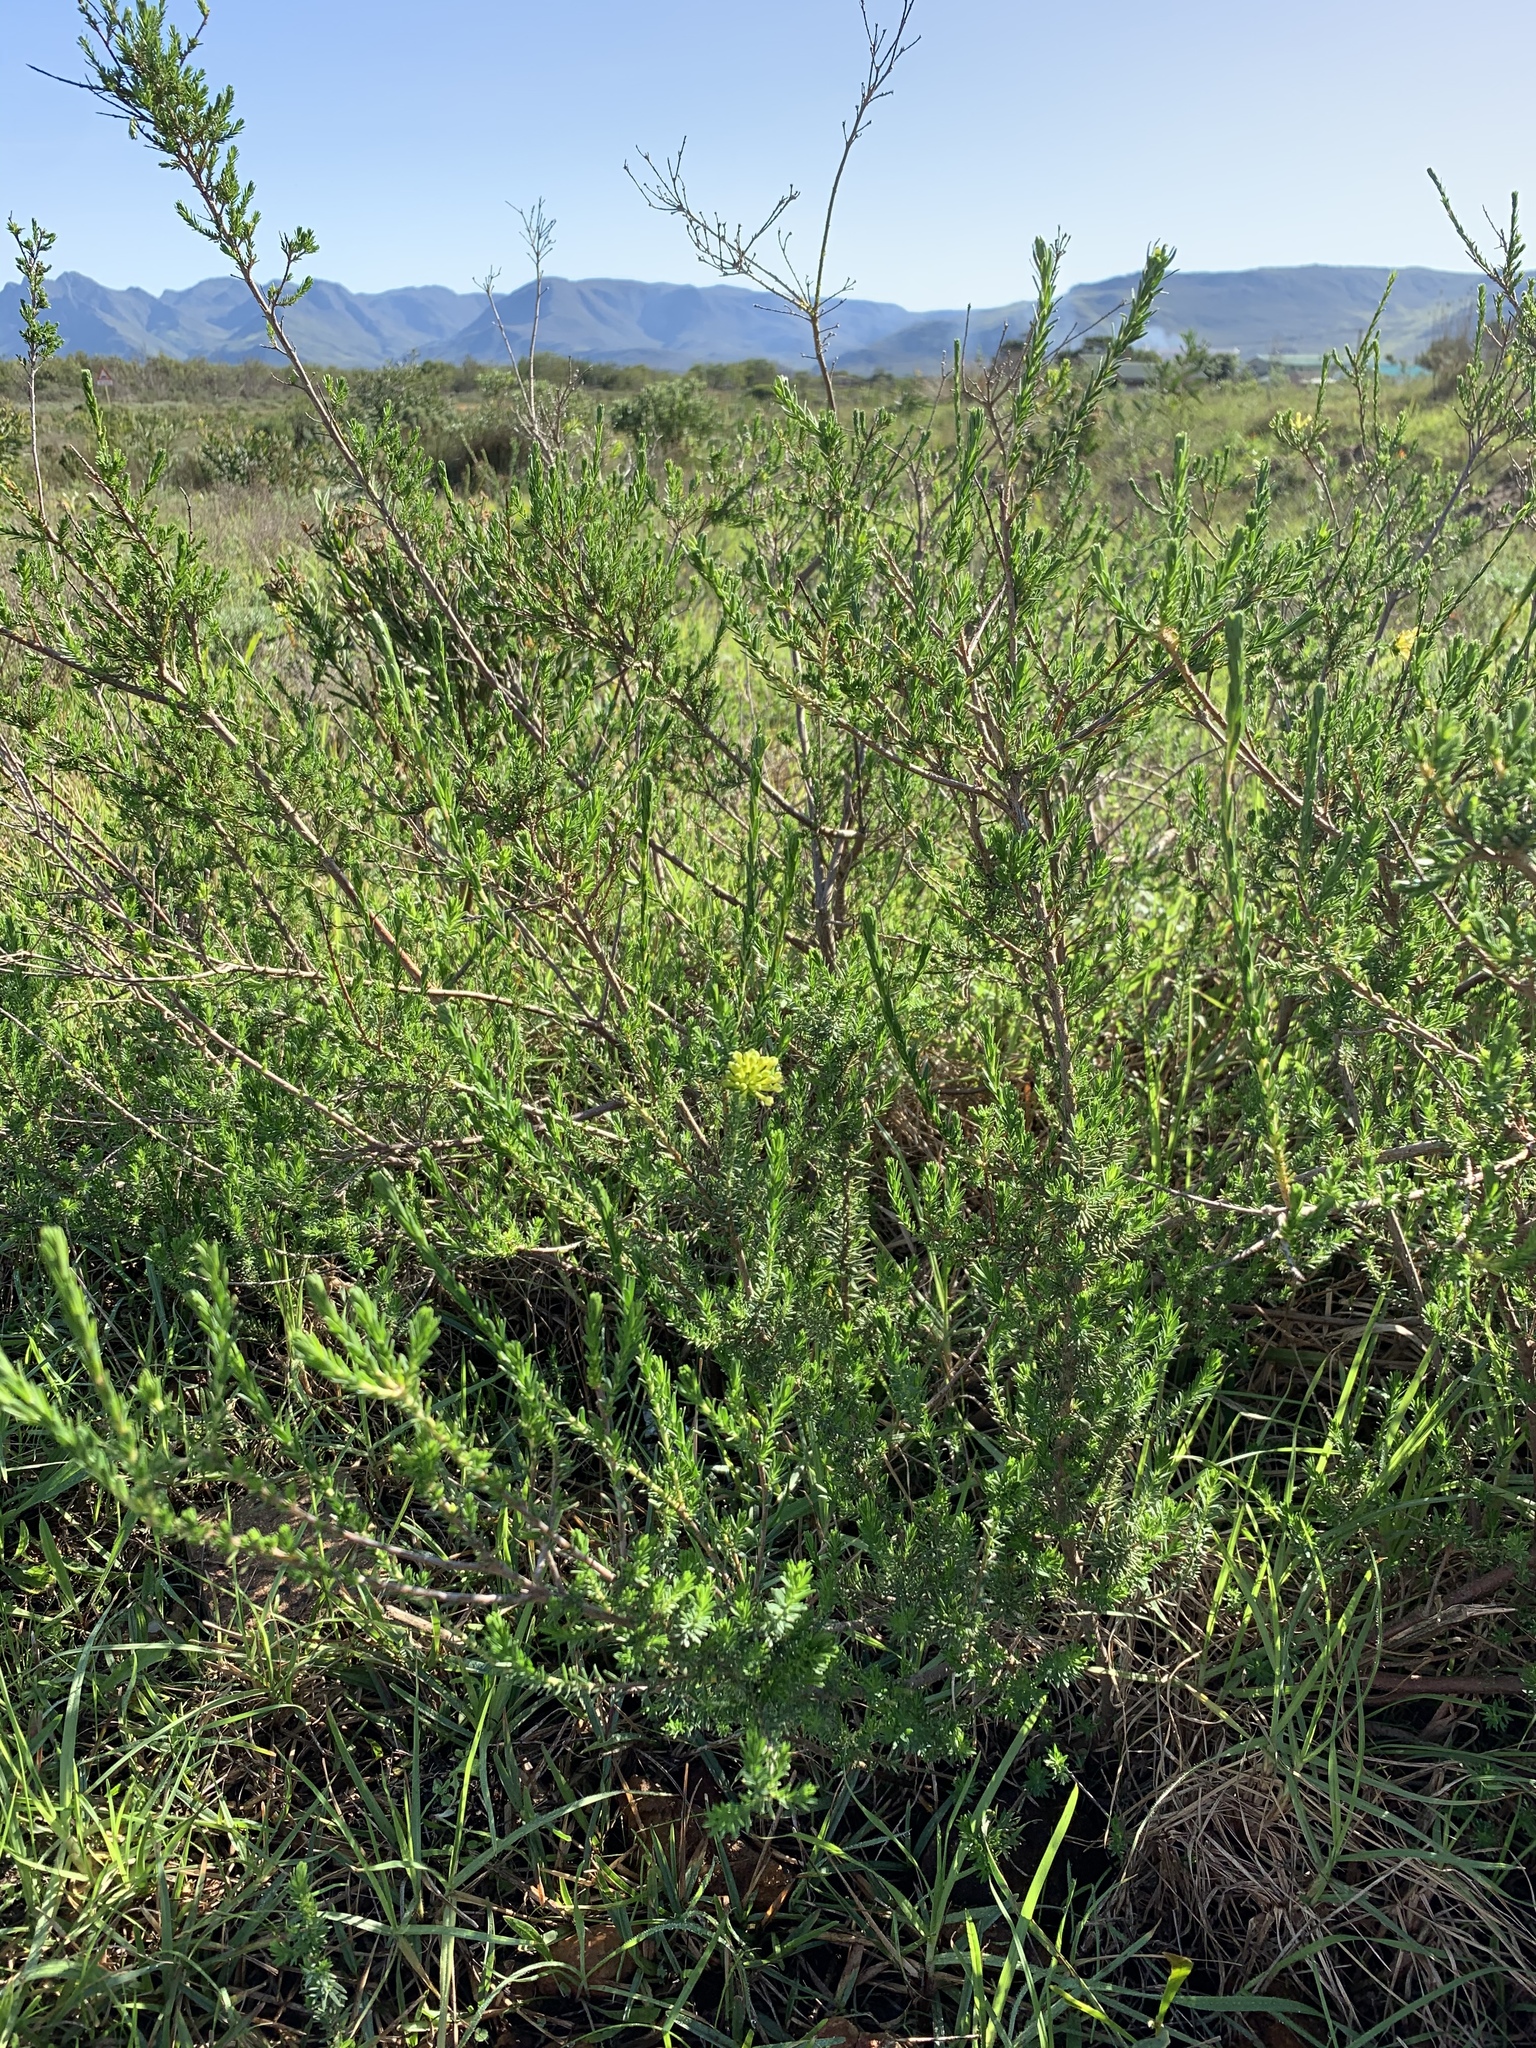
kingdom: Plantae
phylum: Tracheophyta
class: Magnoliopsida
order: Malvales
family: Thymelaeaceae
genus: Gnidia
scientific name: Gnidia squarrosa
